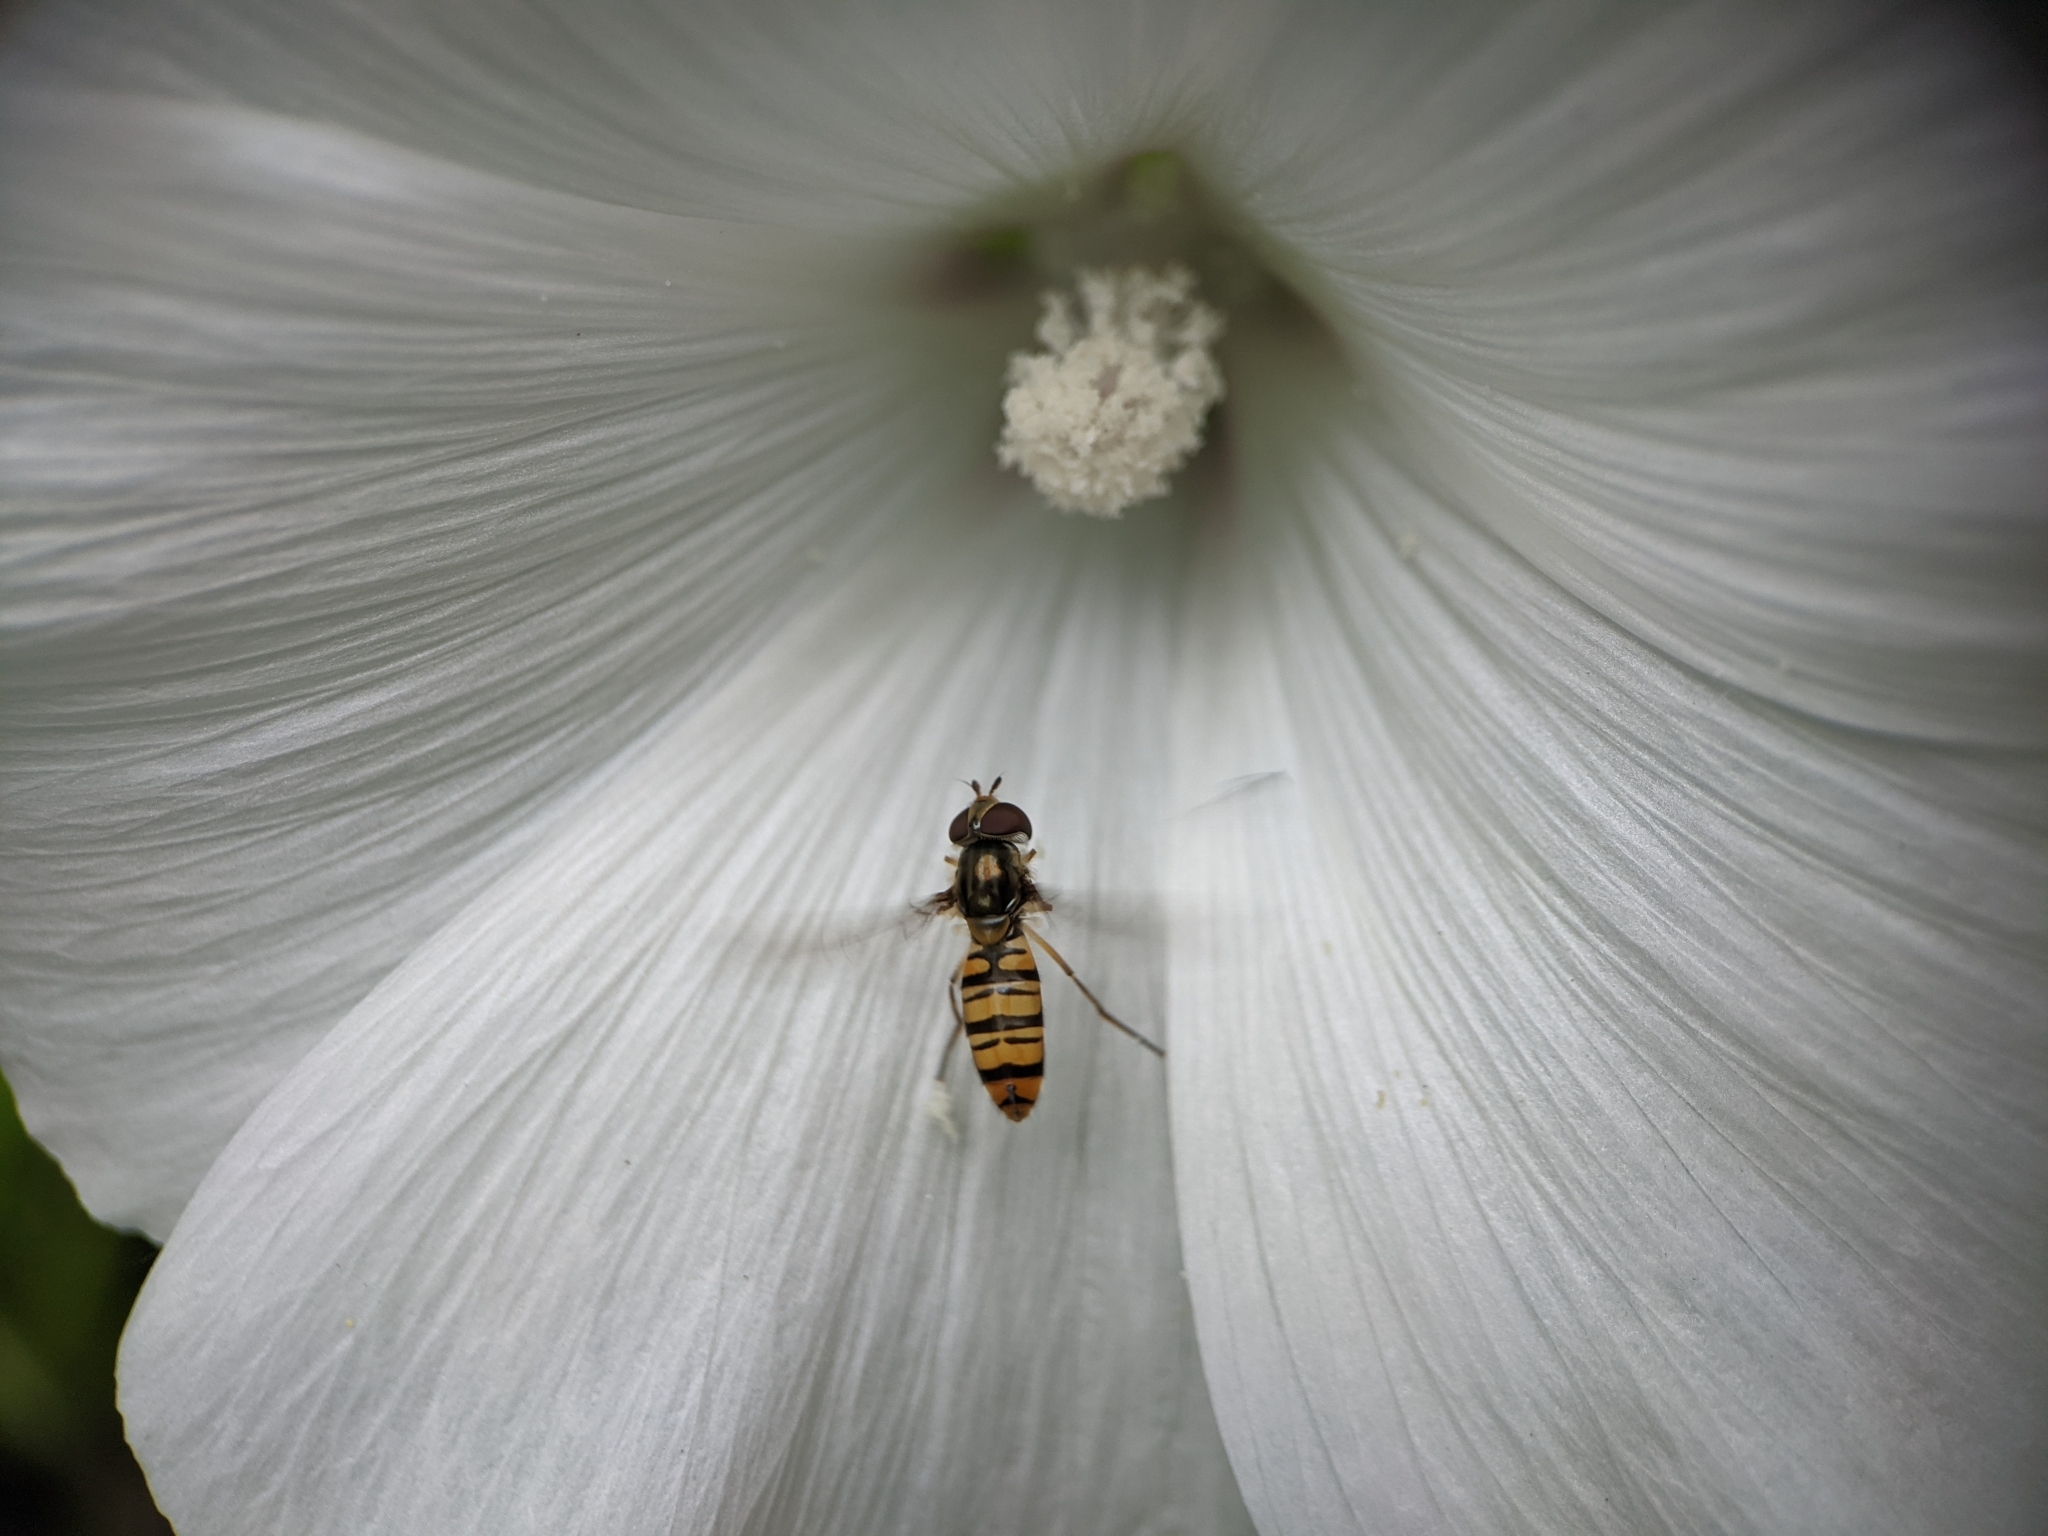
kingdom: Animalia
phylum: Arthropoda
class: Insecta
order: Diptera
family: Syrphidae
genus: Episyrphus
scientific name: Episyrphus balteatus
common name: Marmalade hoverfly
